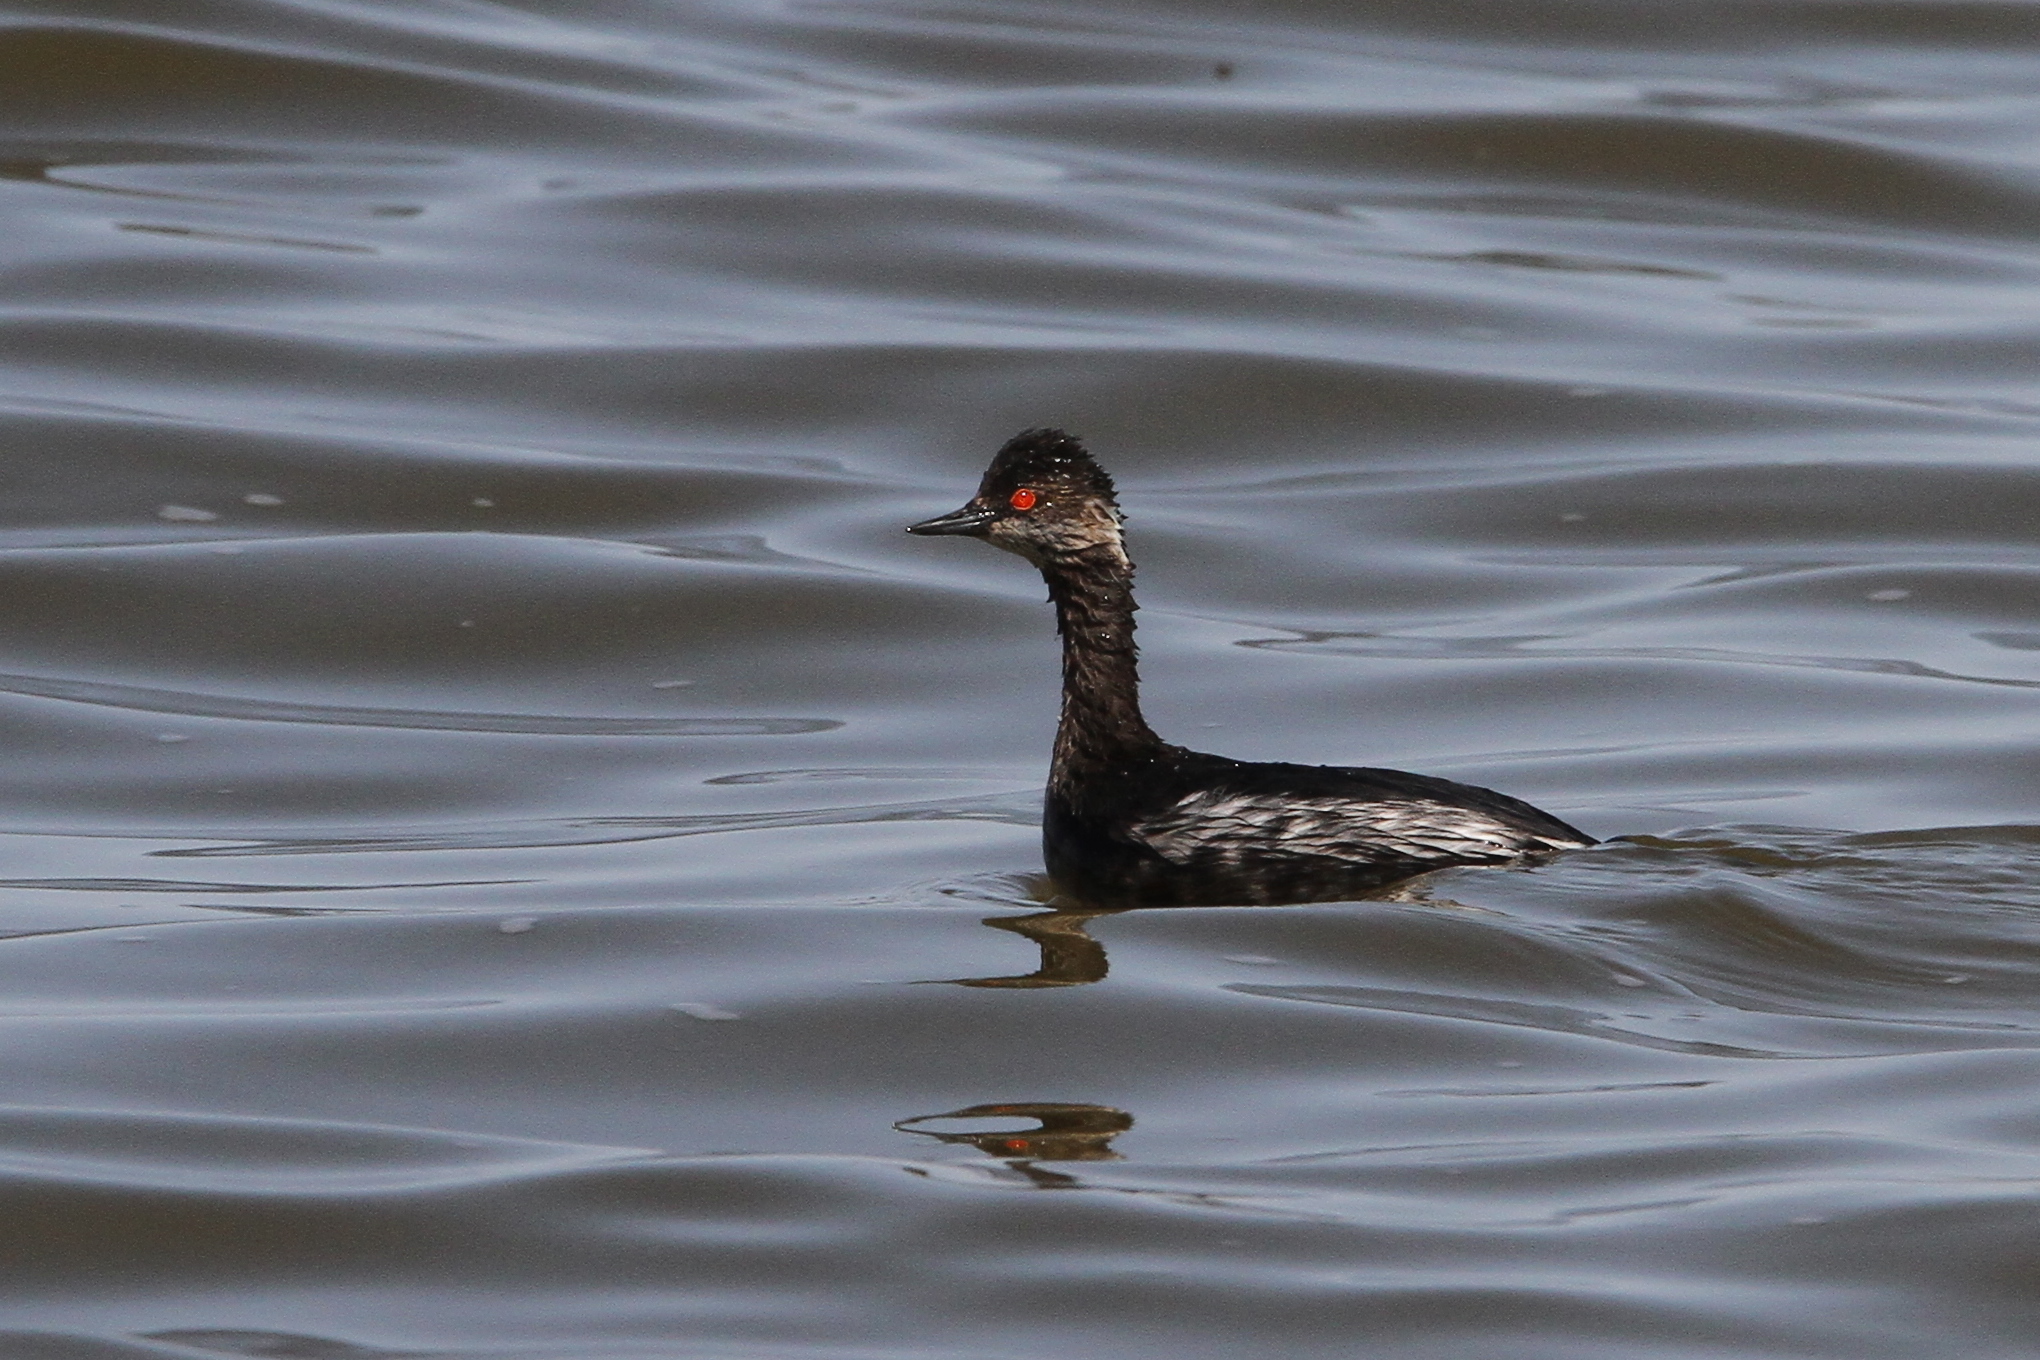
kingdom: Animalia
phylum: Chordata
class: Aves
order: Podicipediformes
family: Podicipedidae
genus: Podiceps
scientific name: Podiceps nigricollis
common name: Black-necked grebe
